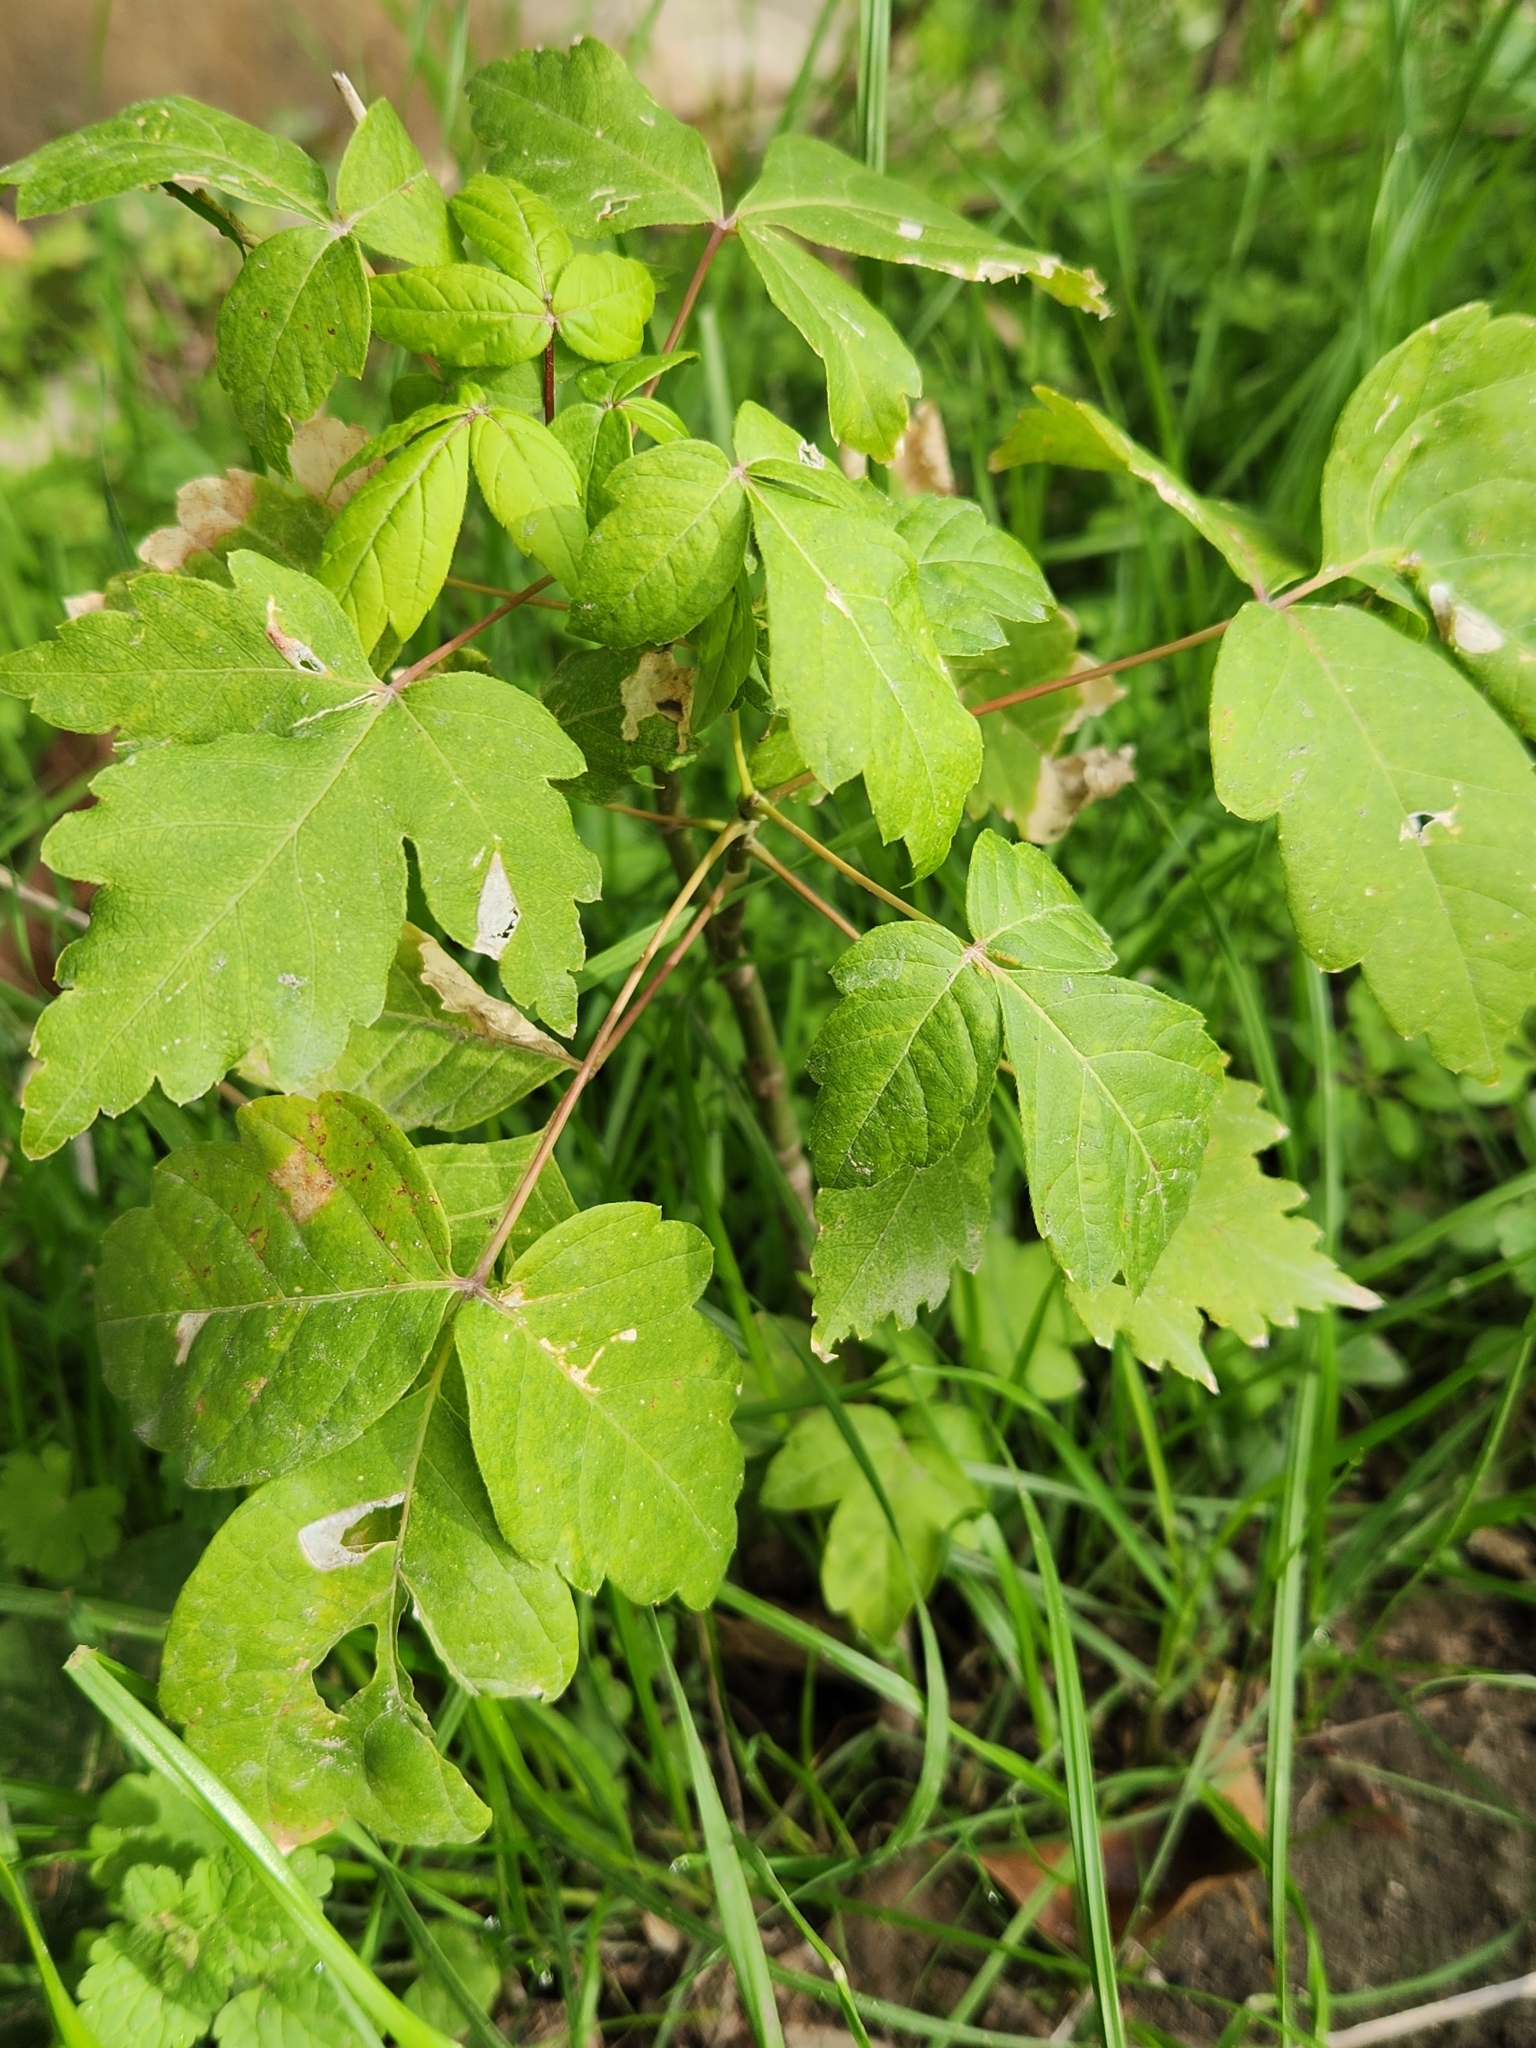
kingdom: Plantae
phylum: Tracheophyta
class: Magnoliopsida
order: Sapindales
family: Sapindaceae
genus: Acer
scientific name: Acer negundo
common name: Ashleaf maple
